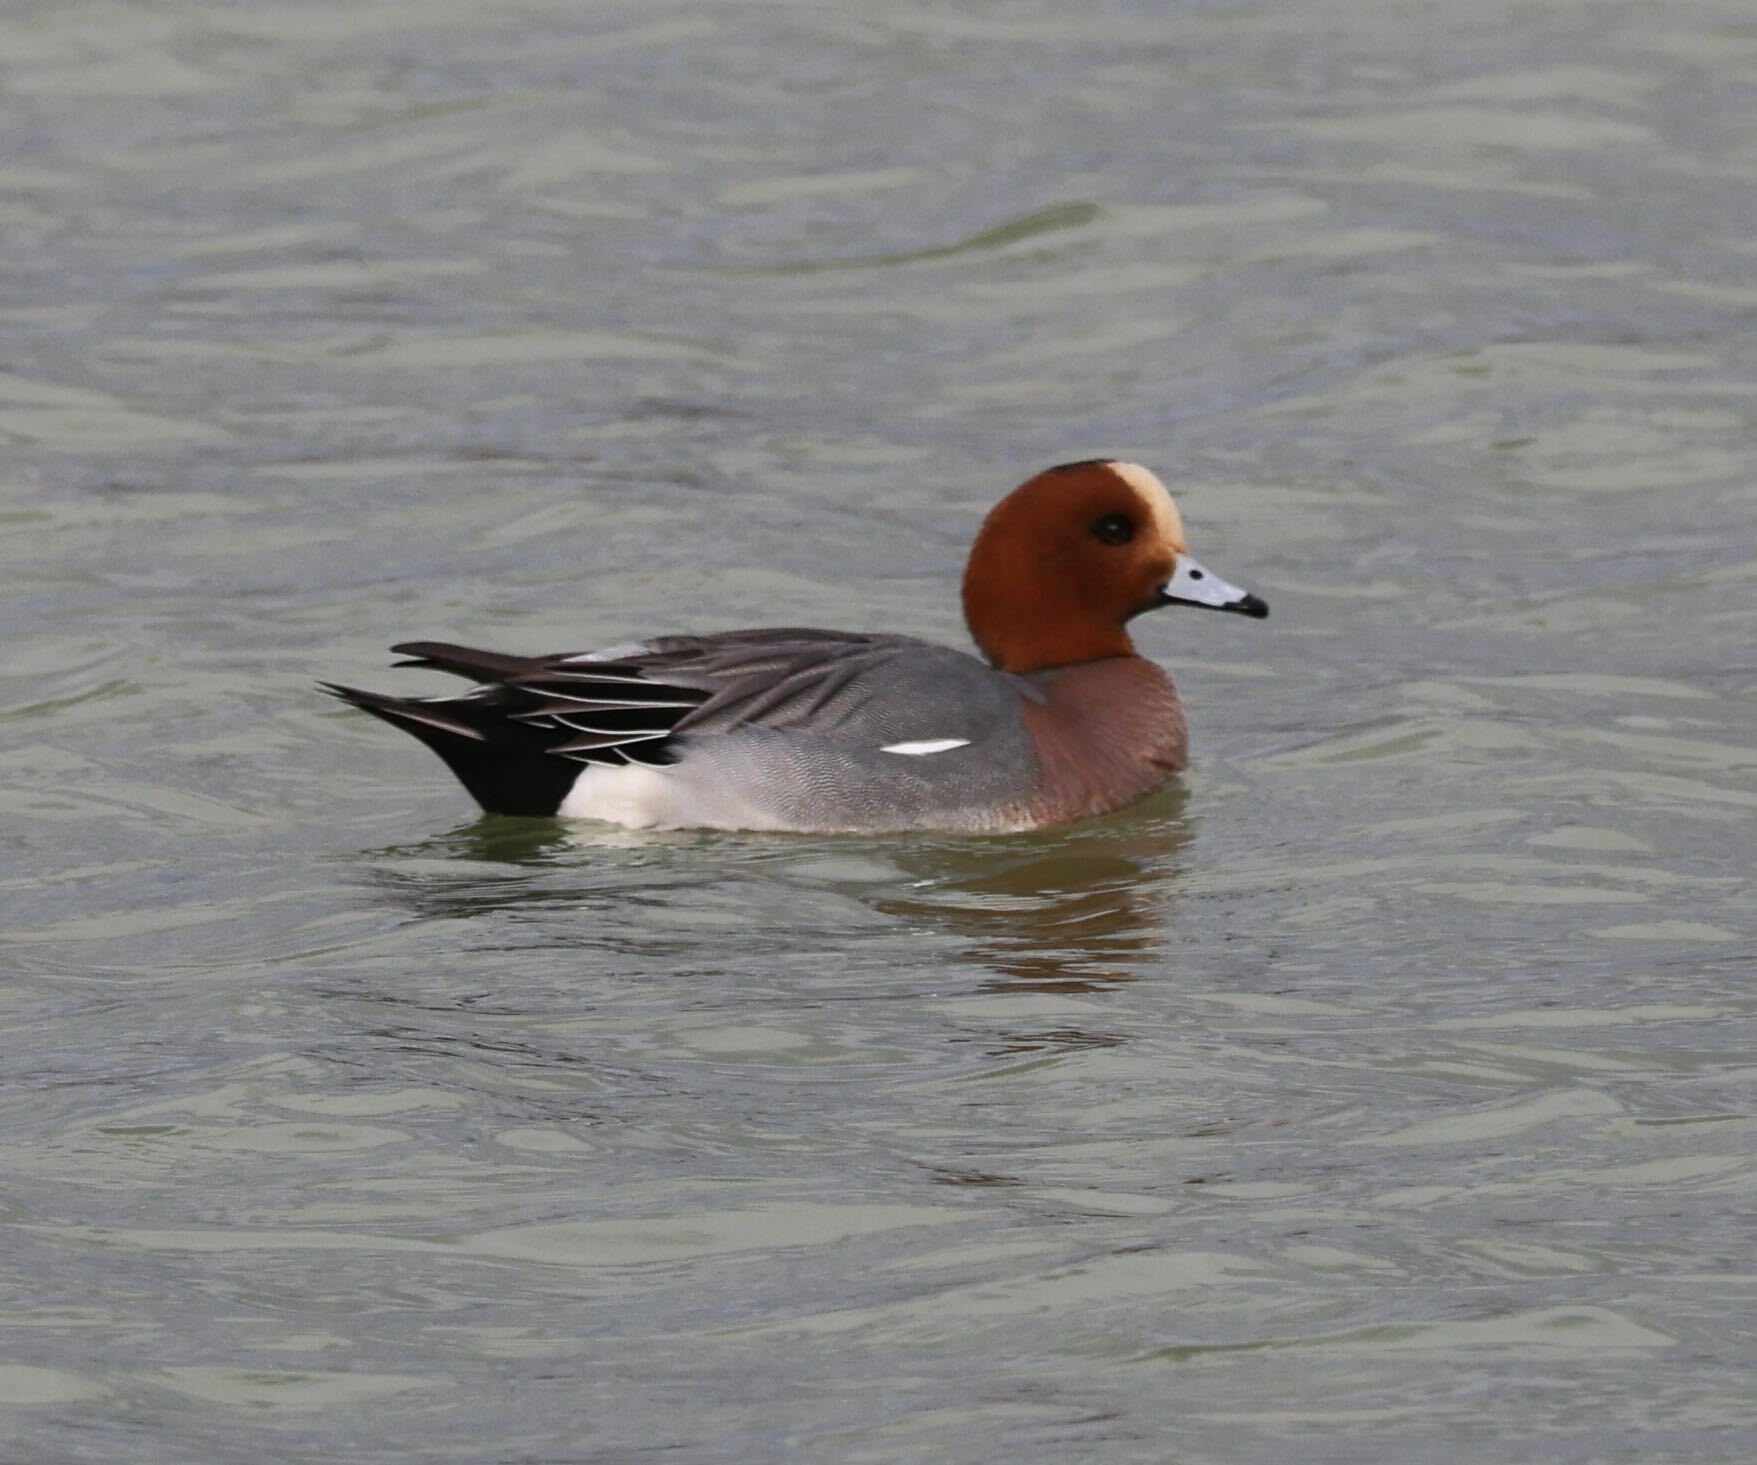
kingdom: Animalia
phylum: Chordata
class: Aves
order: Anseriformes
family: Anatidae
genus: Mareca
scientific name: Mareca penelope
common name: Eurasian wigeon
